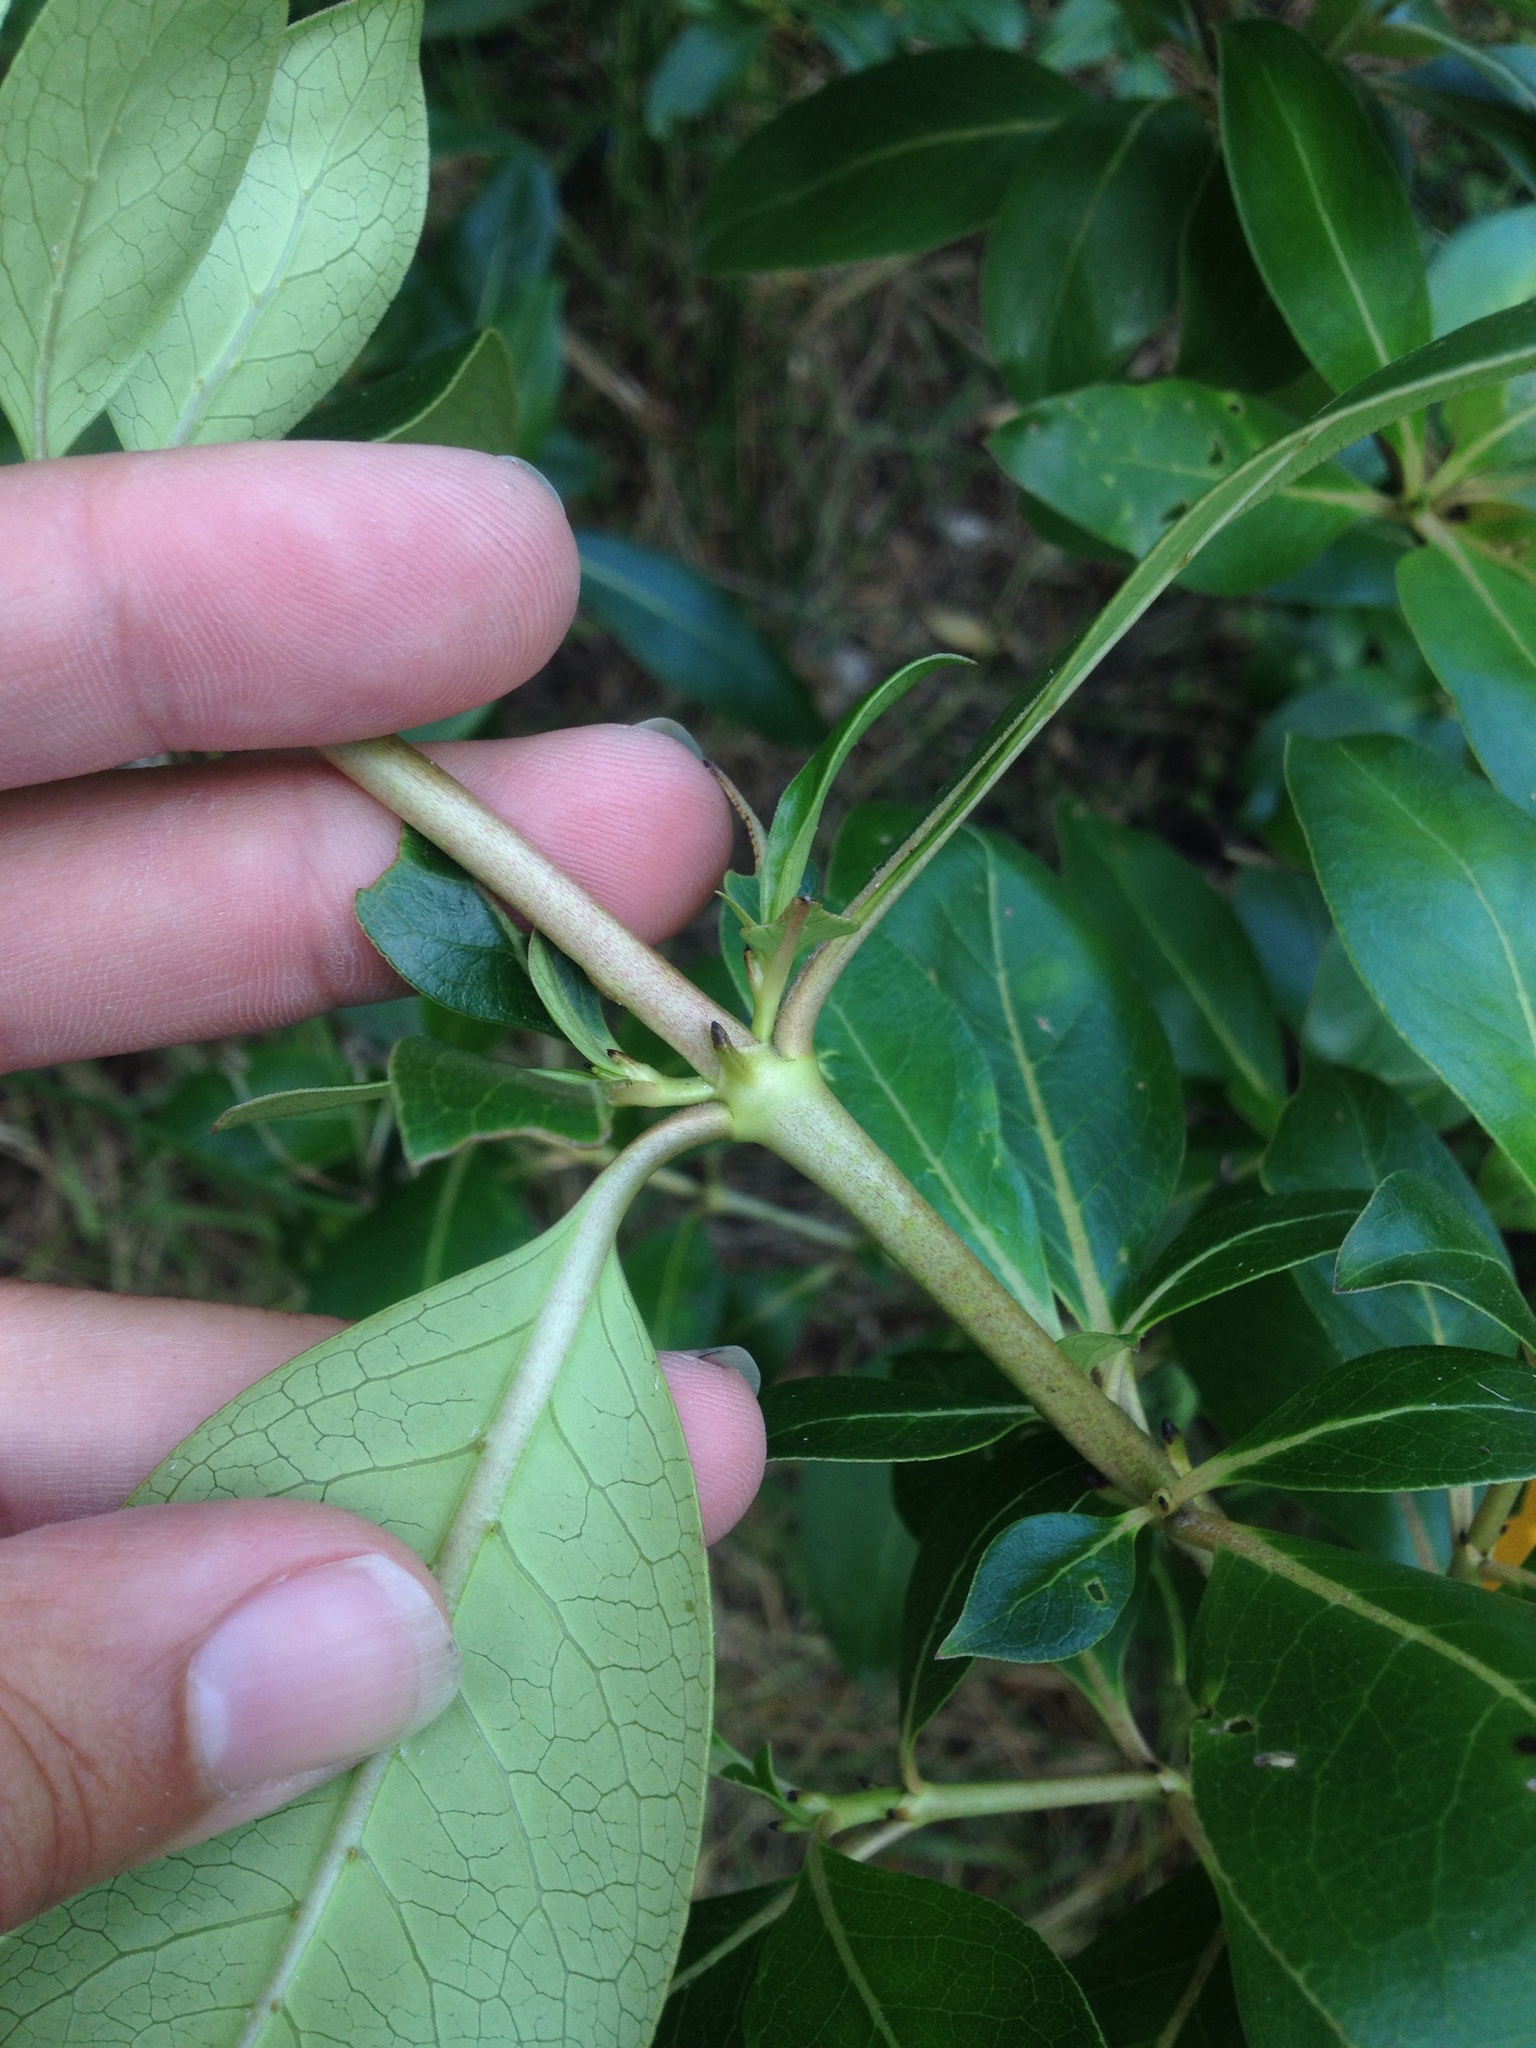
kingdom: Plantae
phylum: Tracheophyta
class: Magnoliopsida
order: Gentianales
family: Rubiaceae
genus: Coprosma
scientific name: Coprosma robusta
